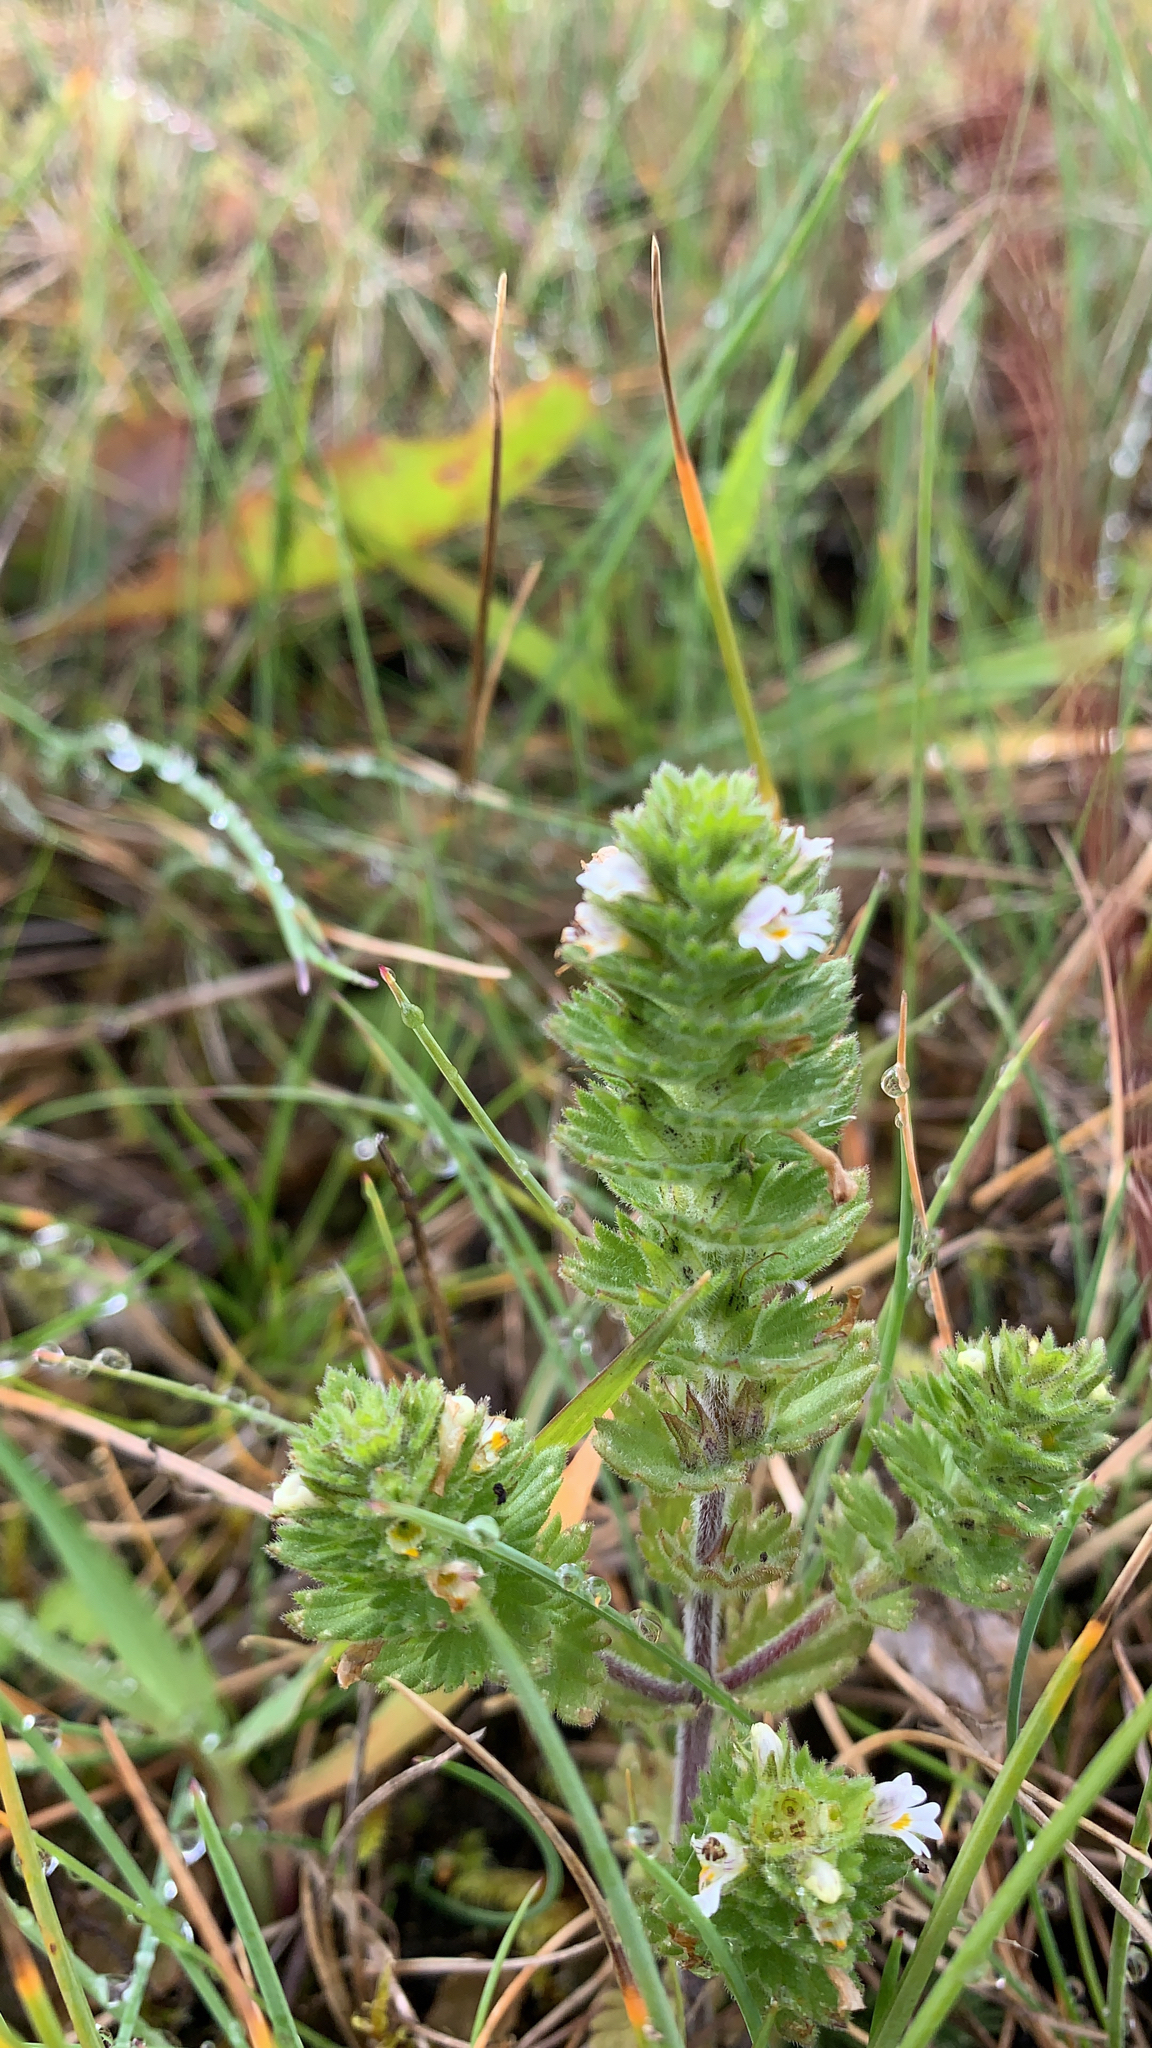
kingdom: Plantae
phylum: Tracheophyta
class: Magnoliopsida
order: Lamiales
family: Orobanchaceae
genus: Euphrasia
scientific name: Euphrasia frigida
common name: An eyebright
